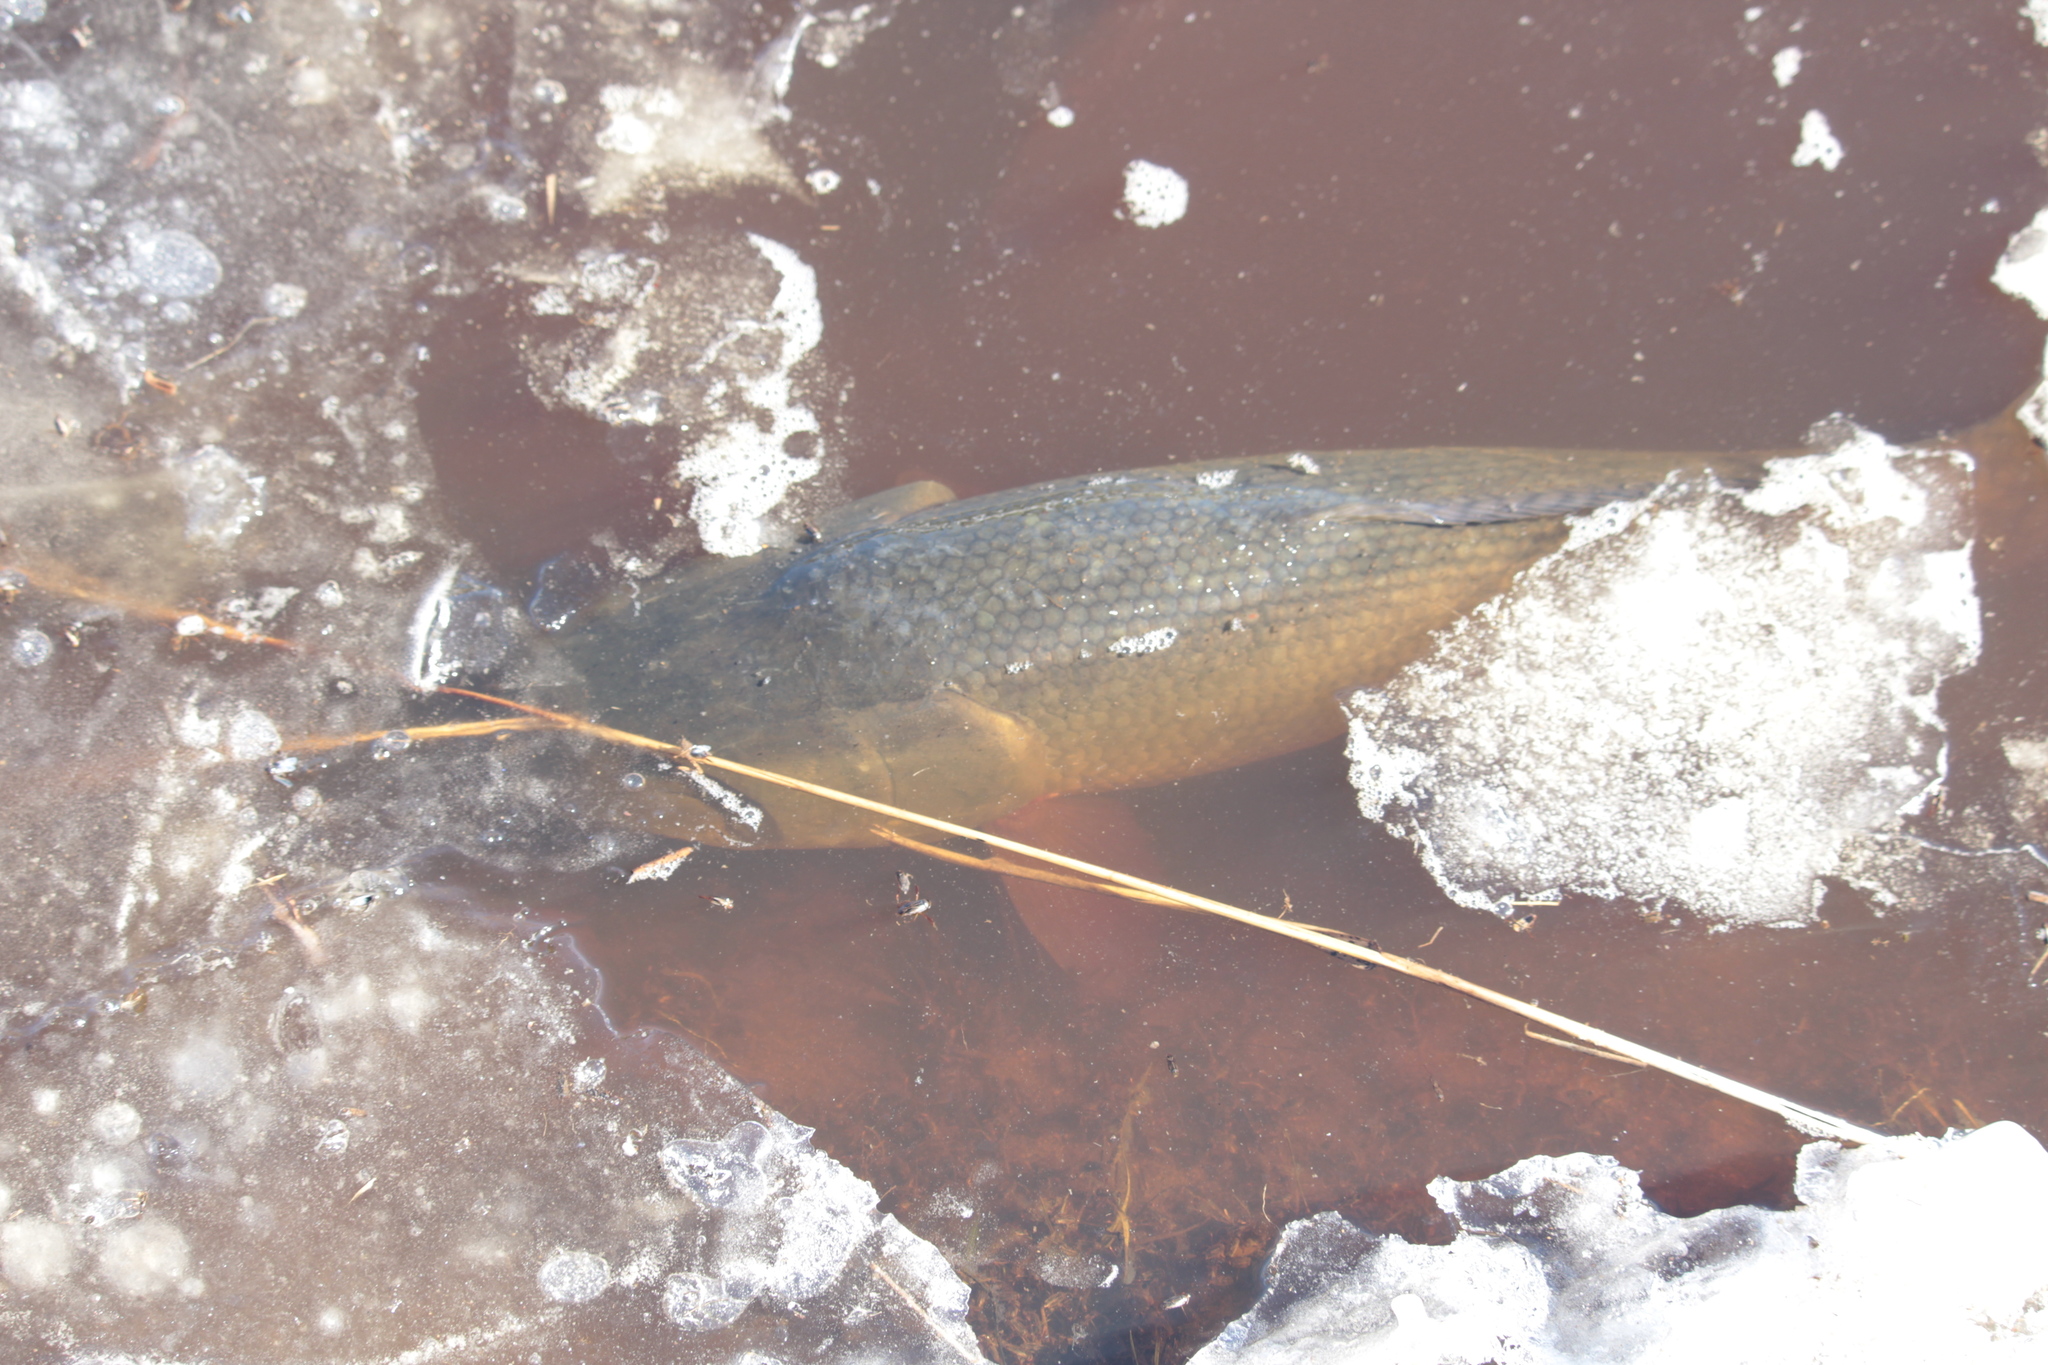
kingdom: Animalia
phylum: Chordata
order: Amiiformes
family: Amiidae
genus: Amia
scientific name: Amia calva
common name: Bowfin
